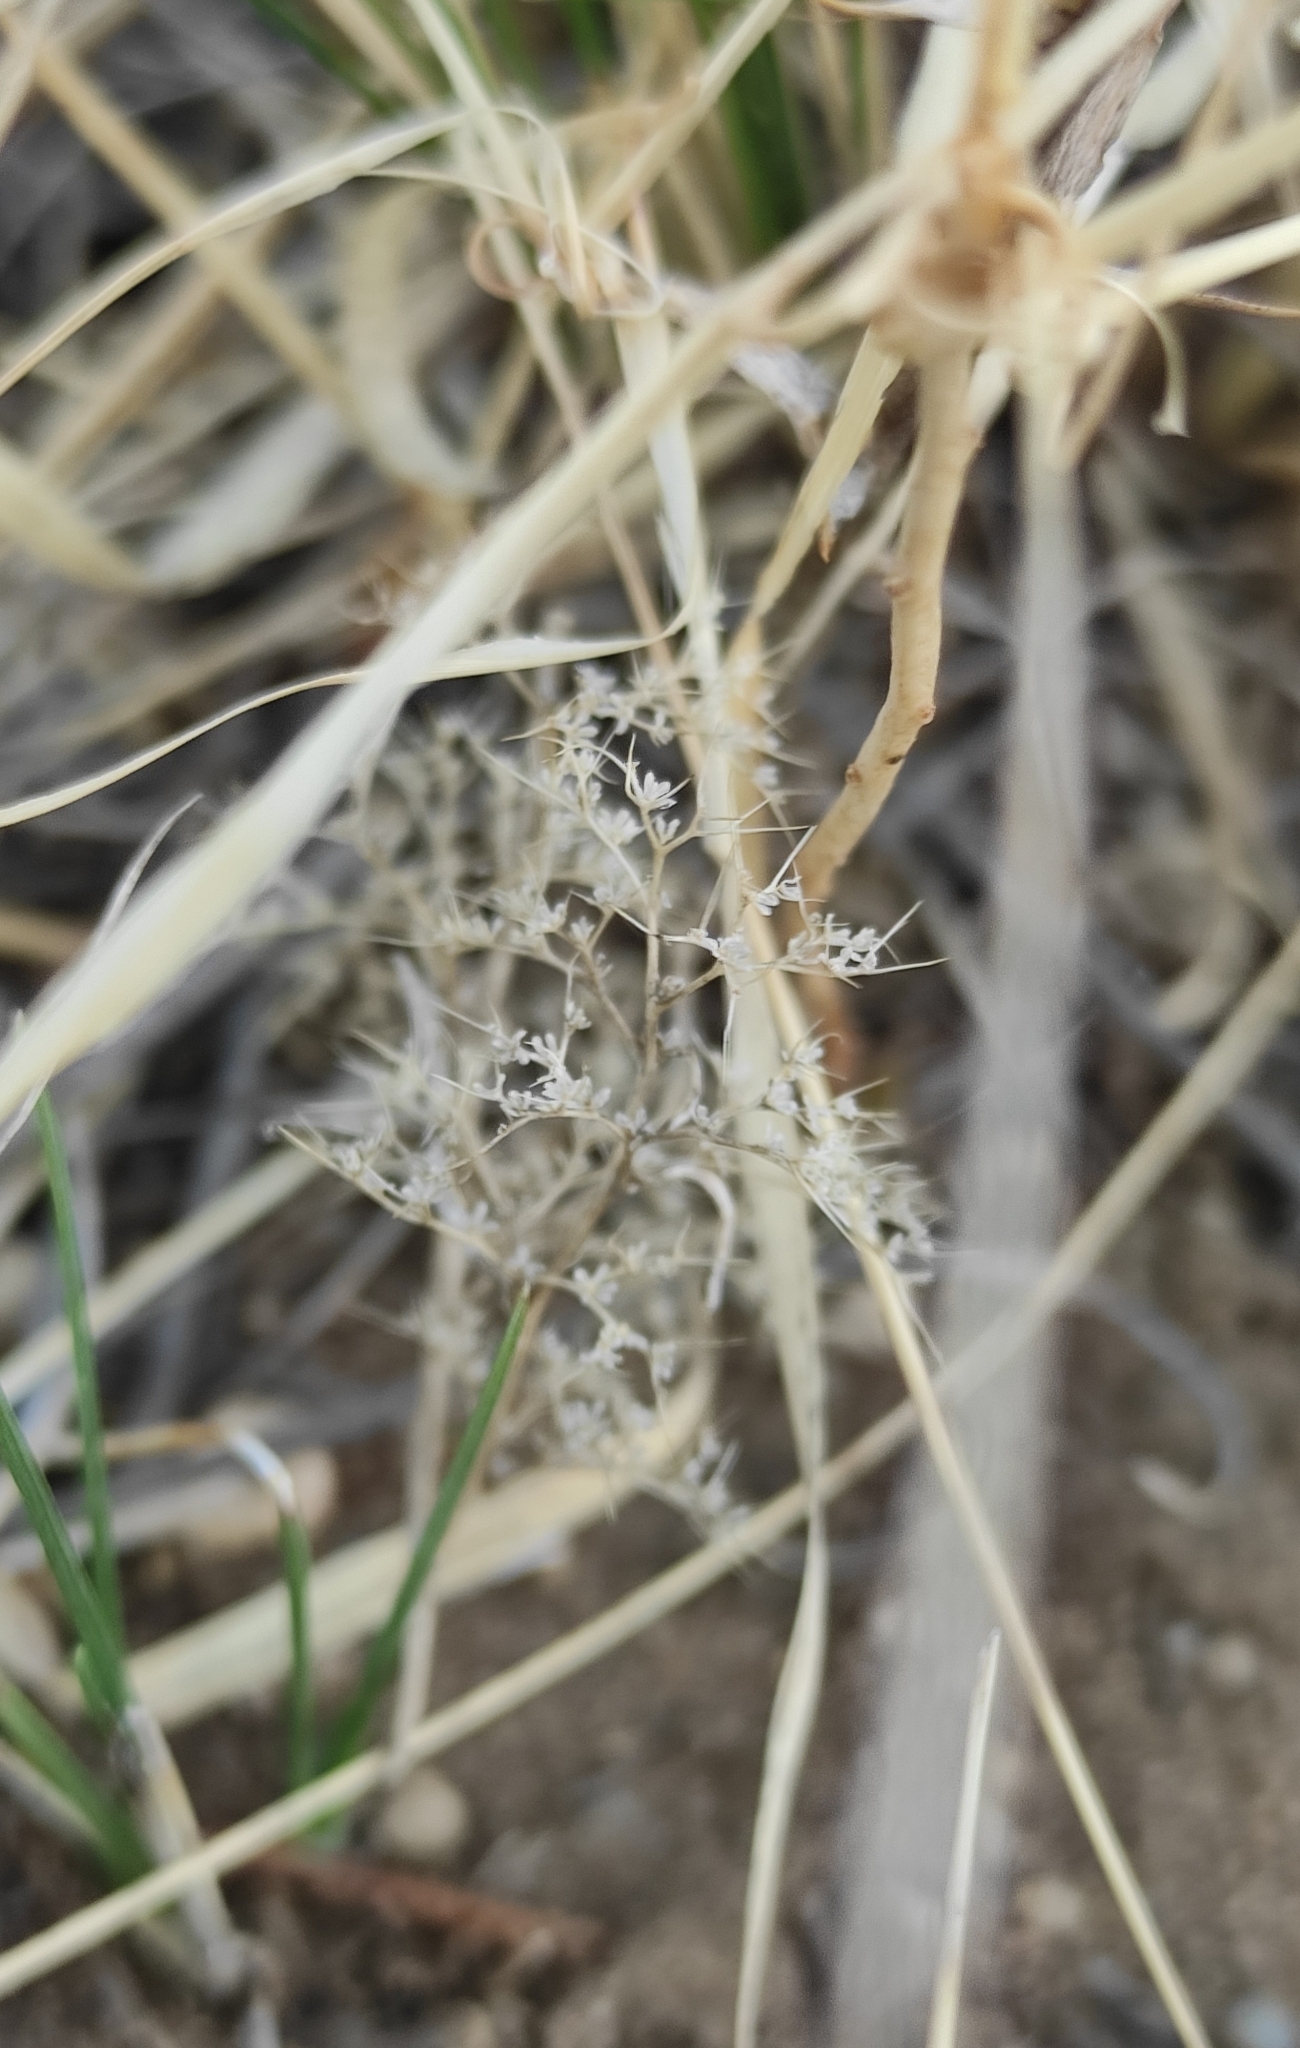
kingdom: Plantae
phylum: Tracheophyta
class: Magnoliopsida
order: Caryophyllales
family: Amaranthaceae
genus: Teloxys
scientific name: Teloxys aristata
